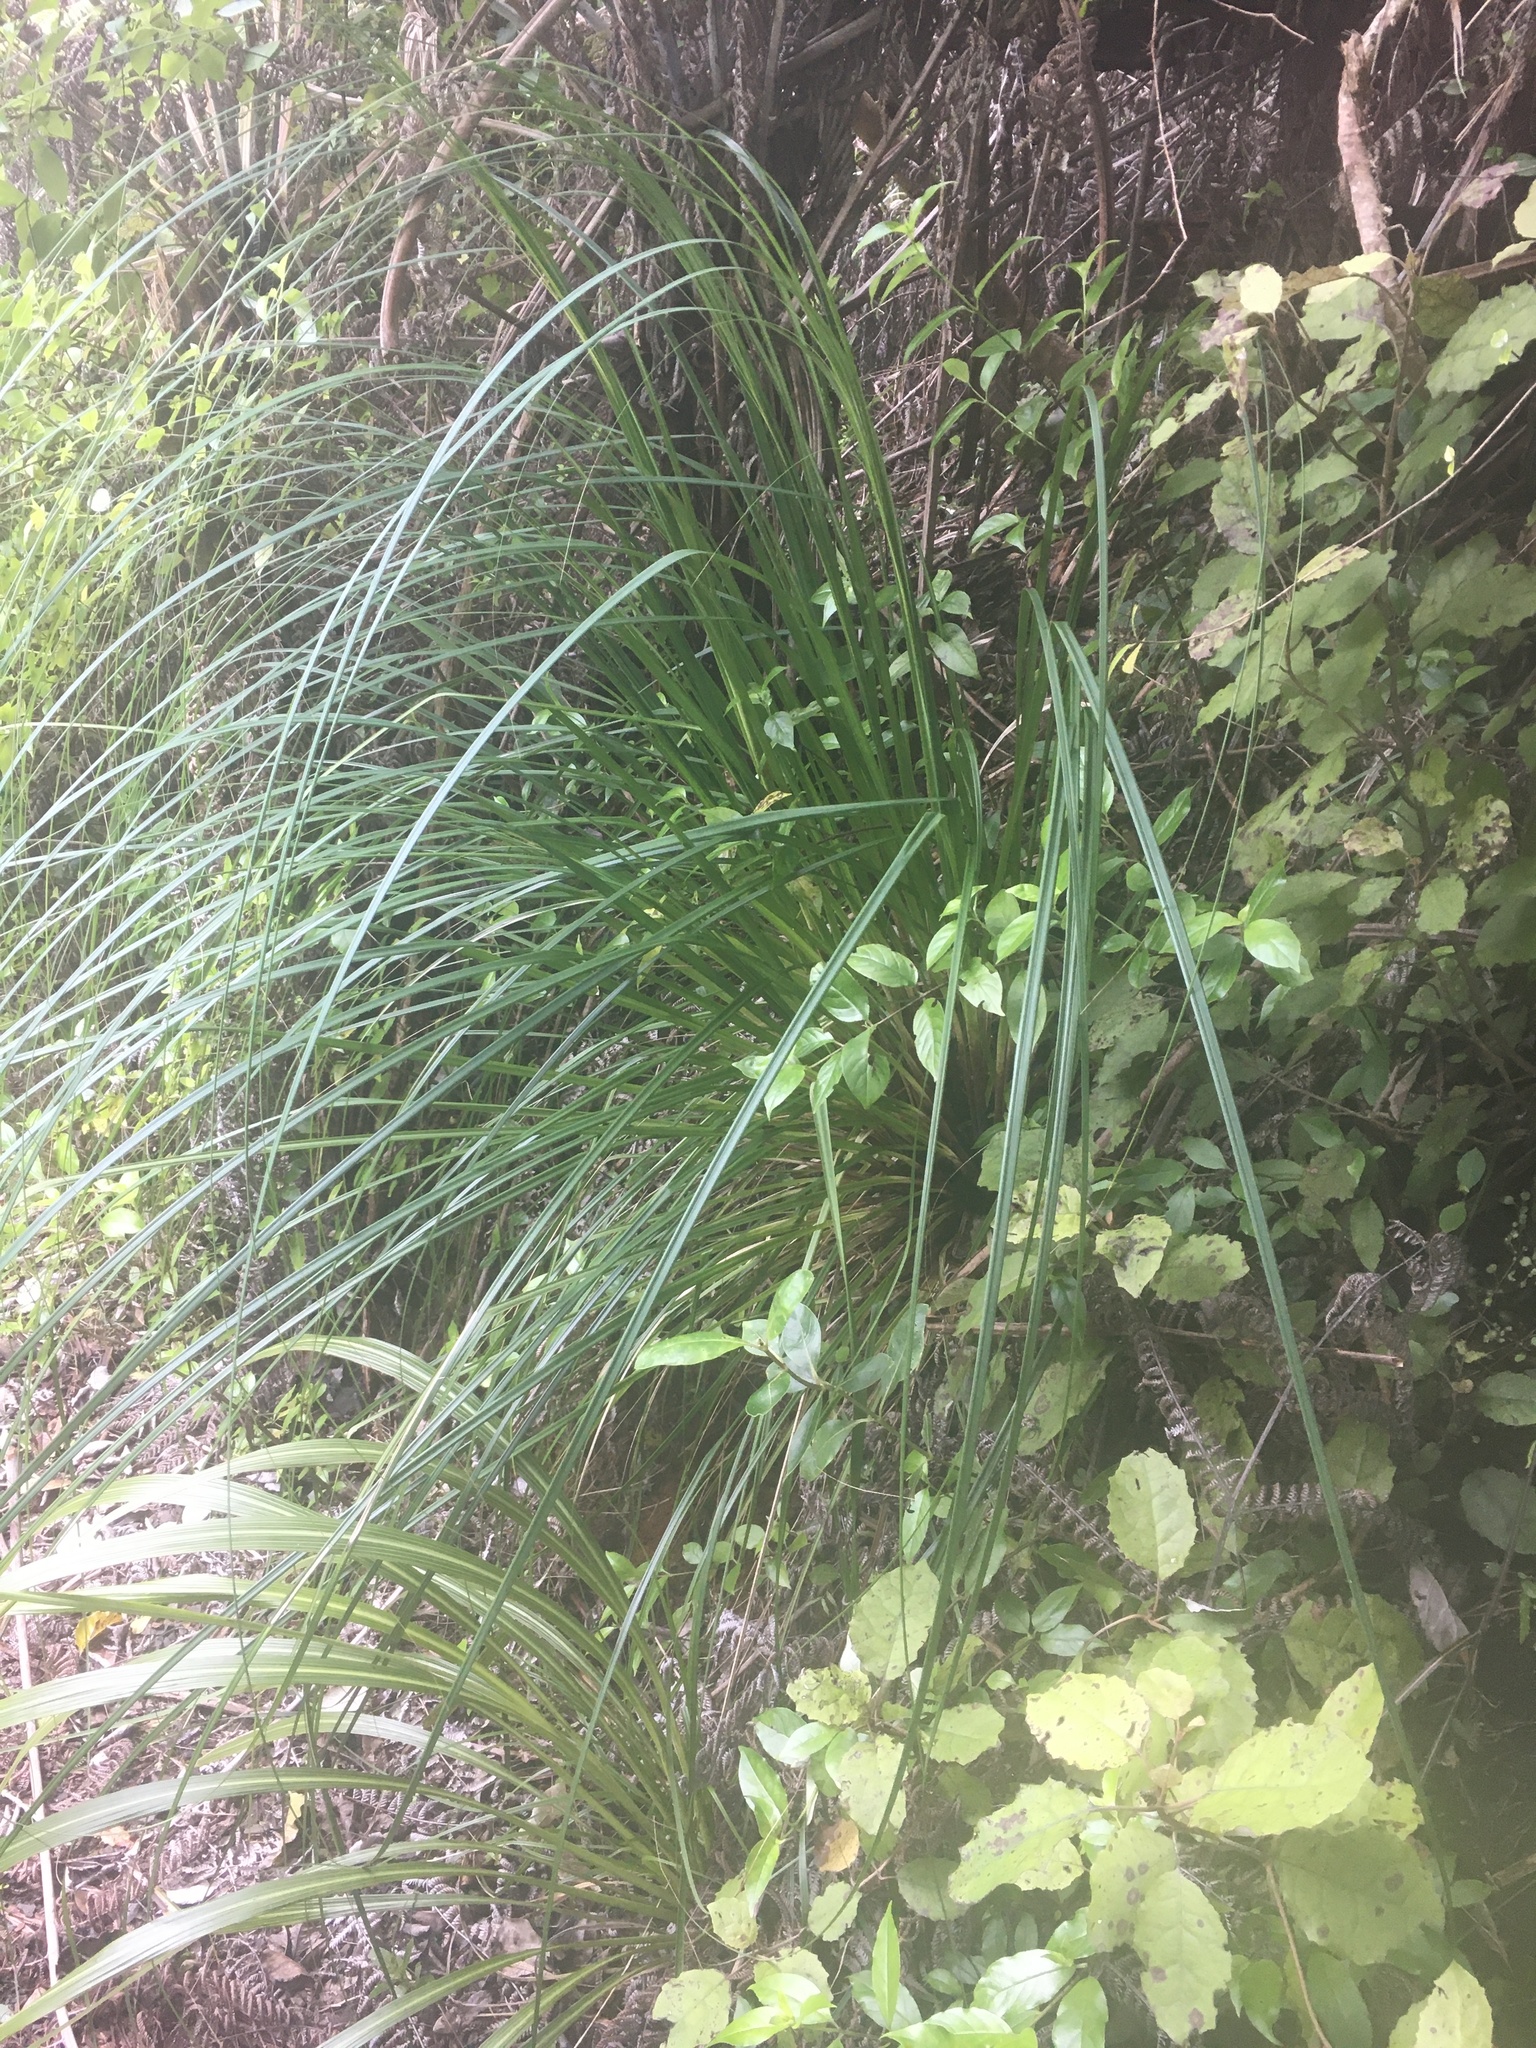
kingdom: Plantae
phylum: Tracheophyta
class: Liliopsida
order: Poales
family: Cyperaceae
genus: Gahnia
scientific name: Gahnia setifolia
